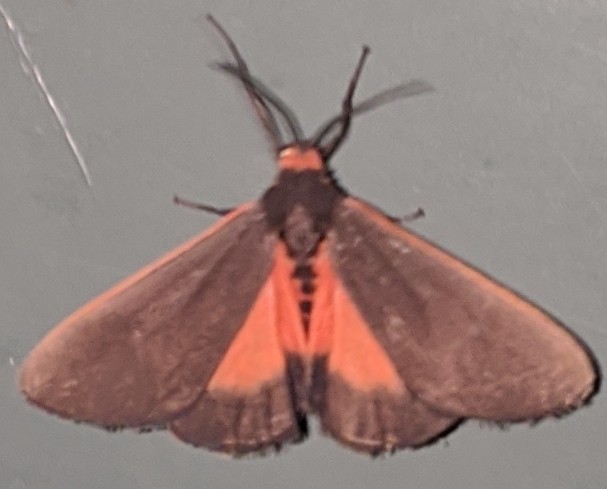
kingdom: Animalia
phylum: Arthropoda
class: Insecta
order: Lepidoptera
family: Erebidae
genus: Virbia
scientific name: Virbia laeta
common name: Joyful holomelina moth
